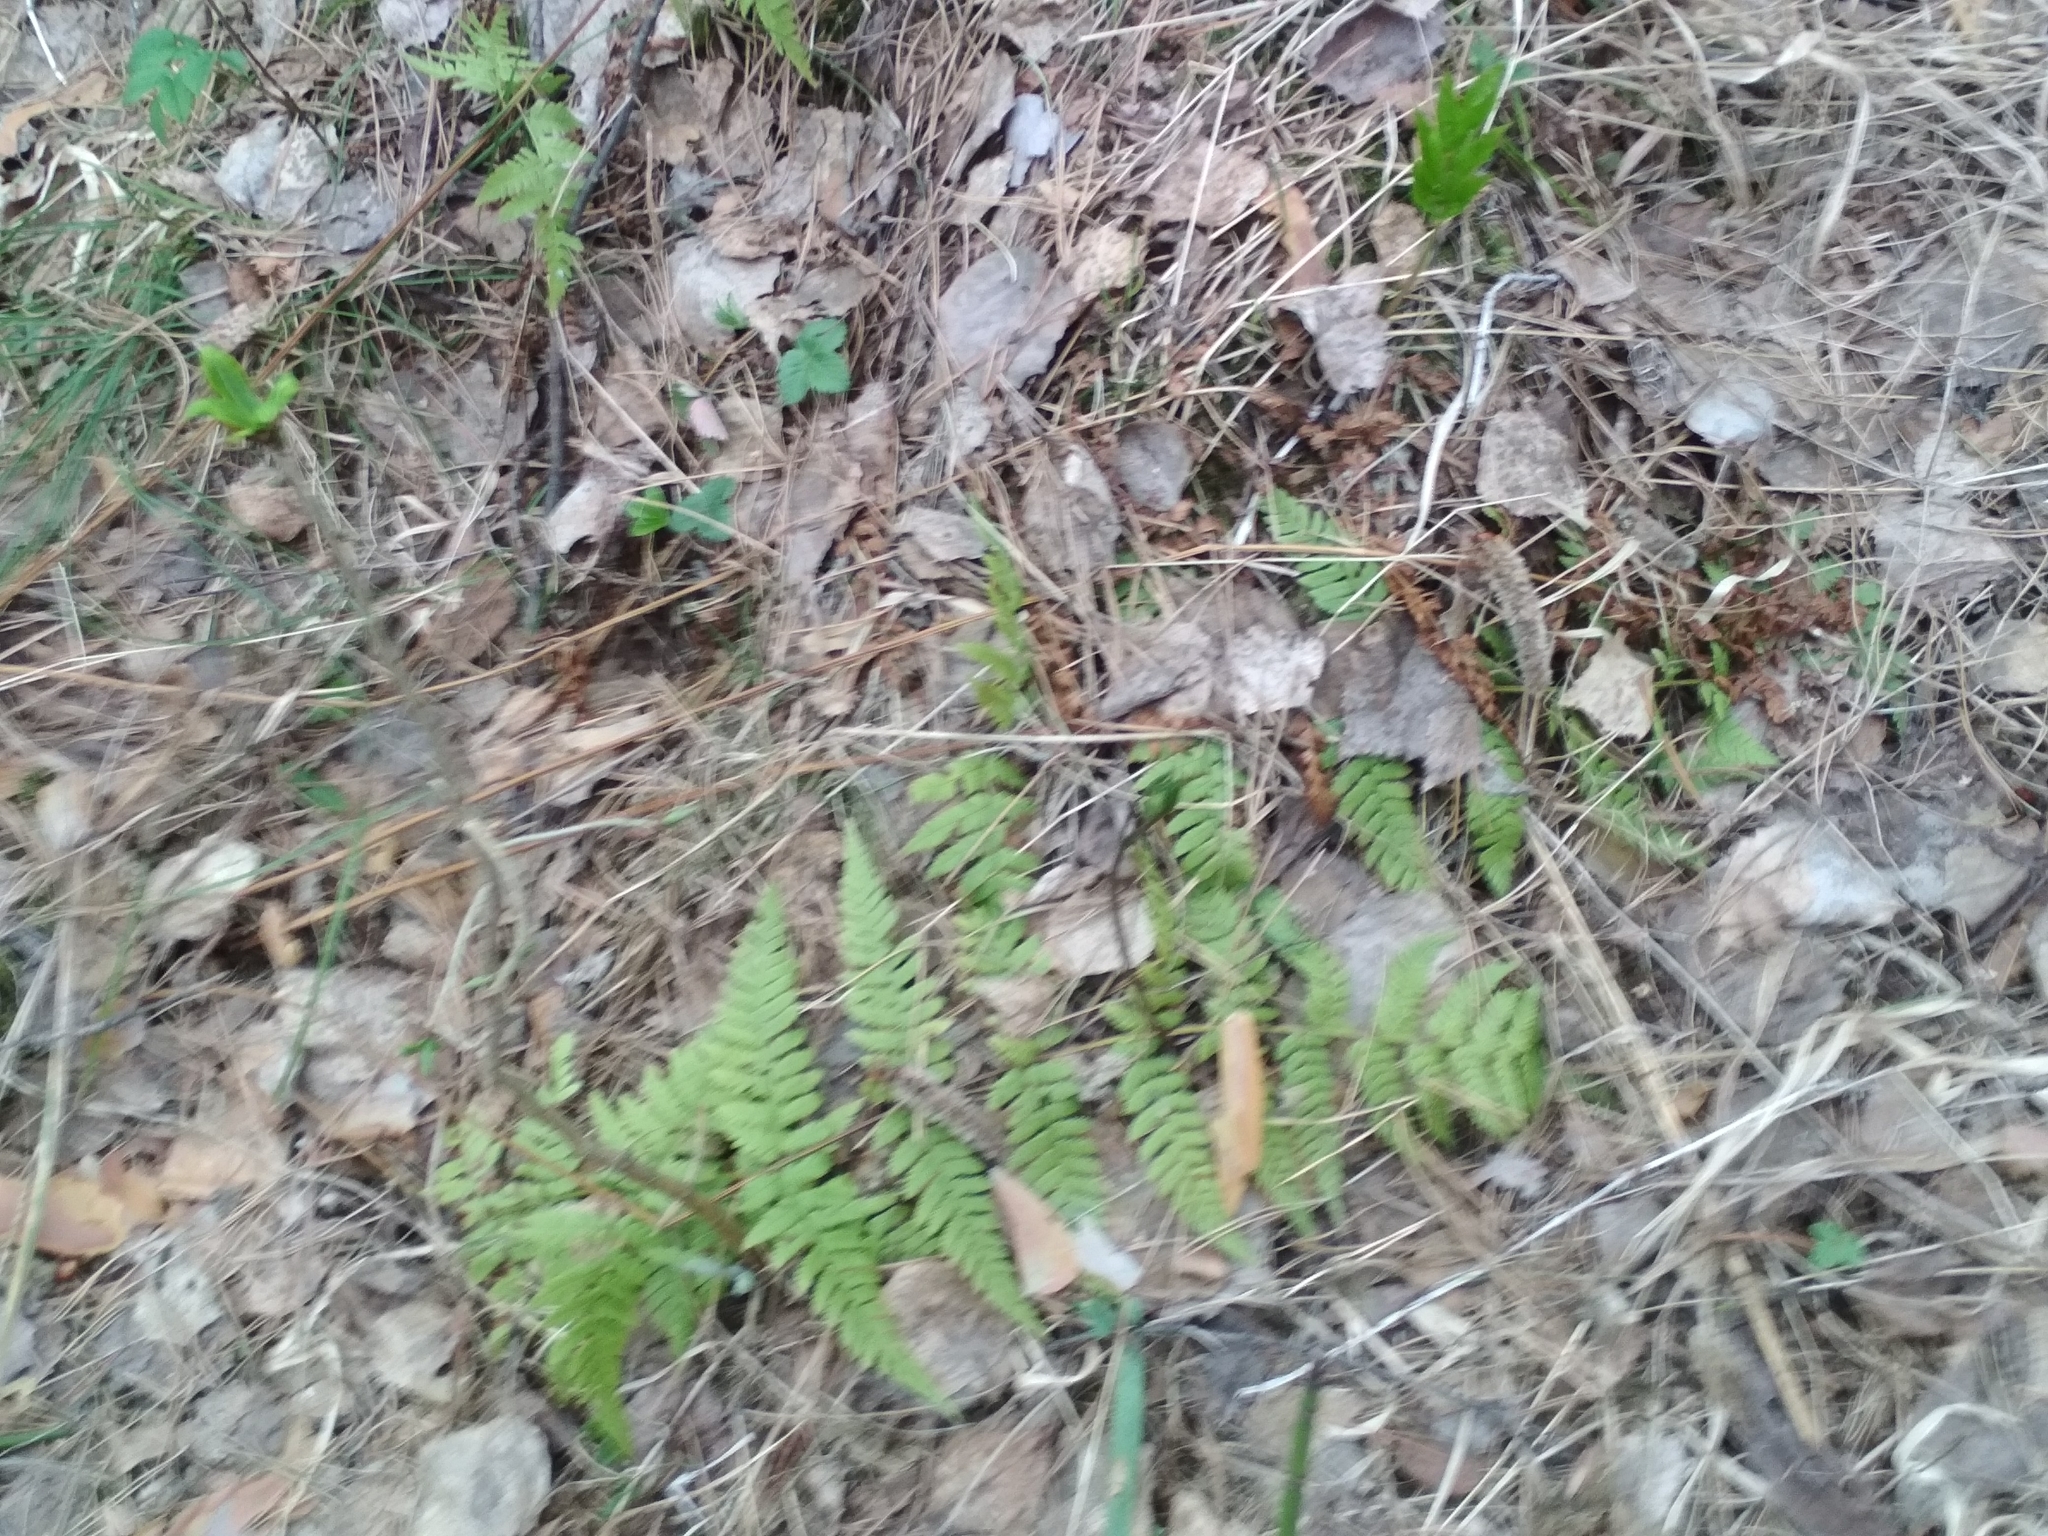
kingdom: Plantae
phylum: Tracheophyta
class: Polypodiopsida
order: Polypodiales
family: Dryopteridaceae
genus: Dryopteris
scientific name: Dryopteris carthusiana
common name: Narrow buckler-fern
